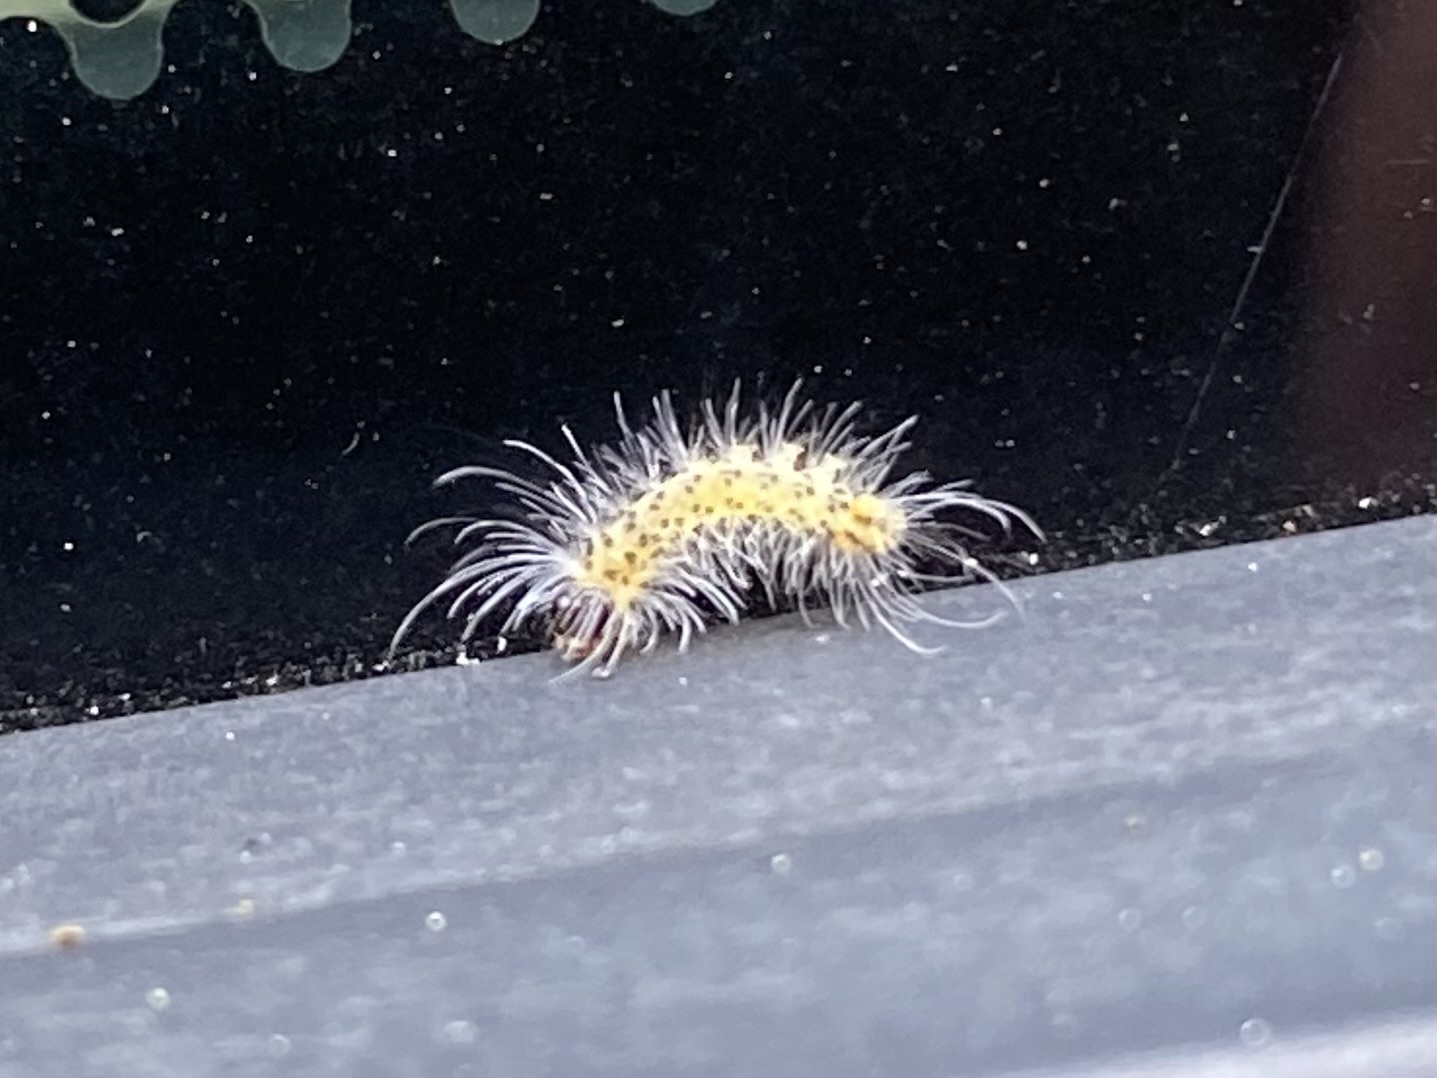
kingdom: Animalia
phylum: Arthropoda
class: Insecta
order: Lepidoptera
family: Erebidae
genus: Hyphantria
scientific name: Hyphantria cunea
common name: American white moth
